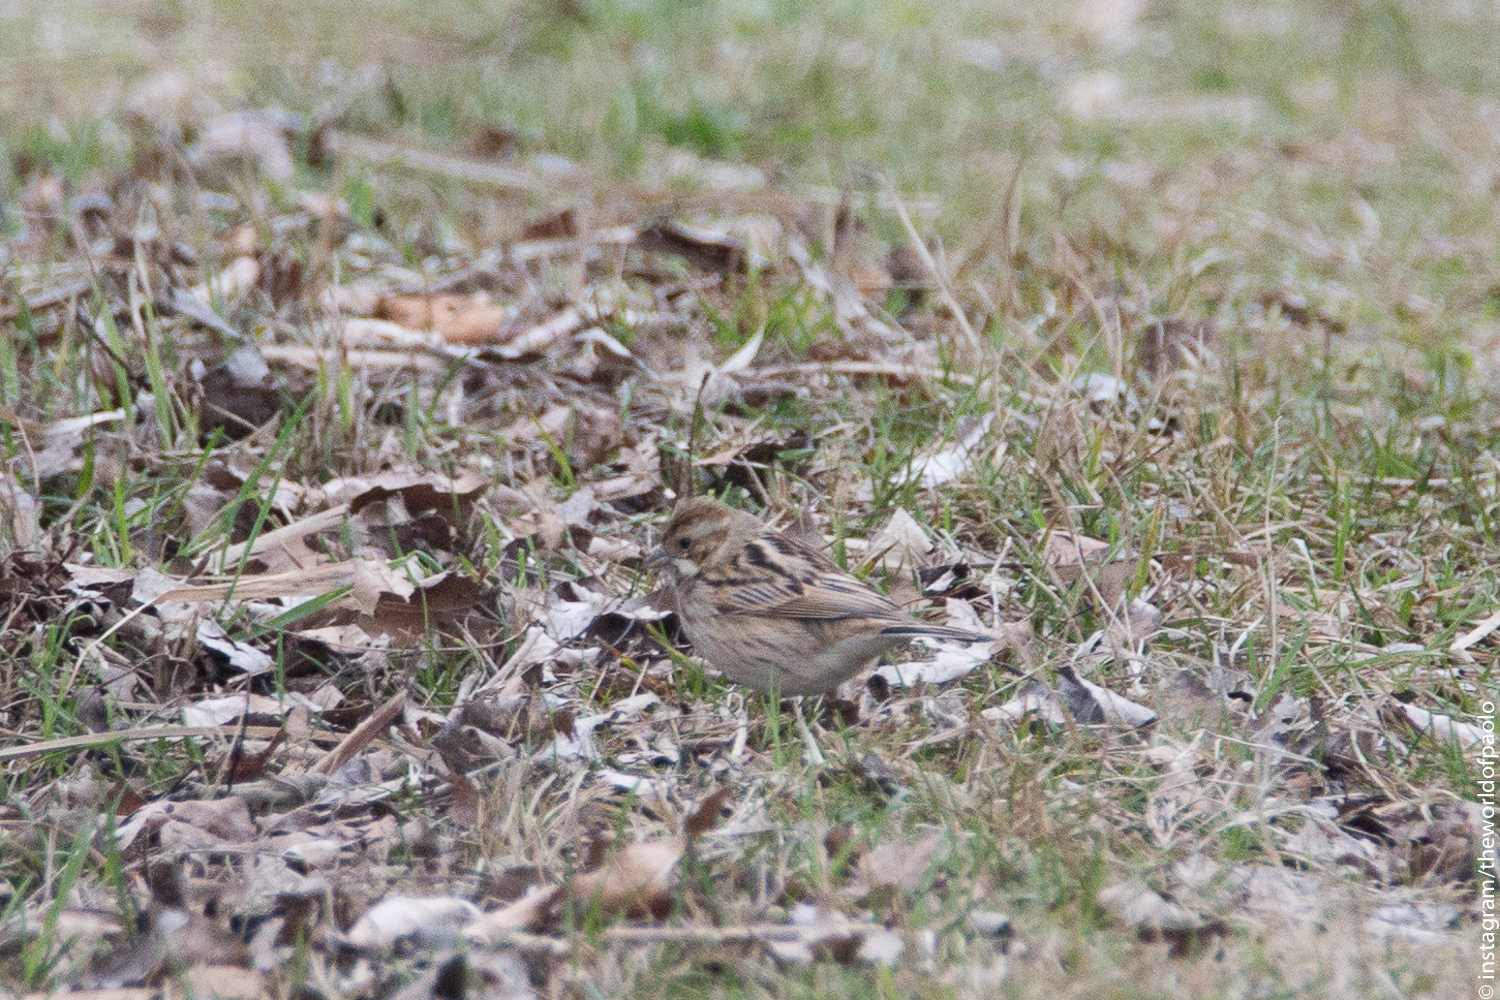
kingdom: Animalia
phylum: Chordata
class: Aves
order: Passeriformes
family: Emberizidae
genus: Emberiza
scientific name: Emberiza schoeniclus
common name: Reed bunting
